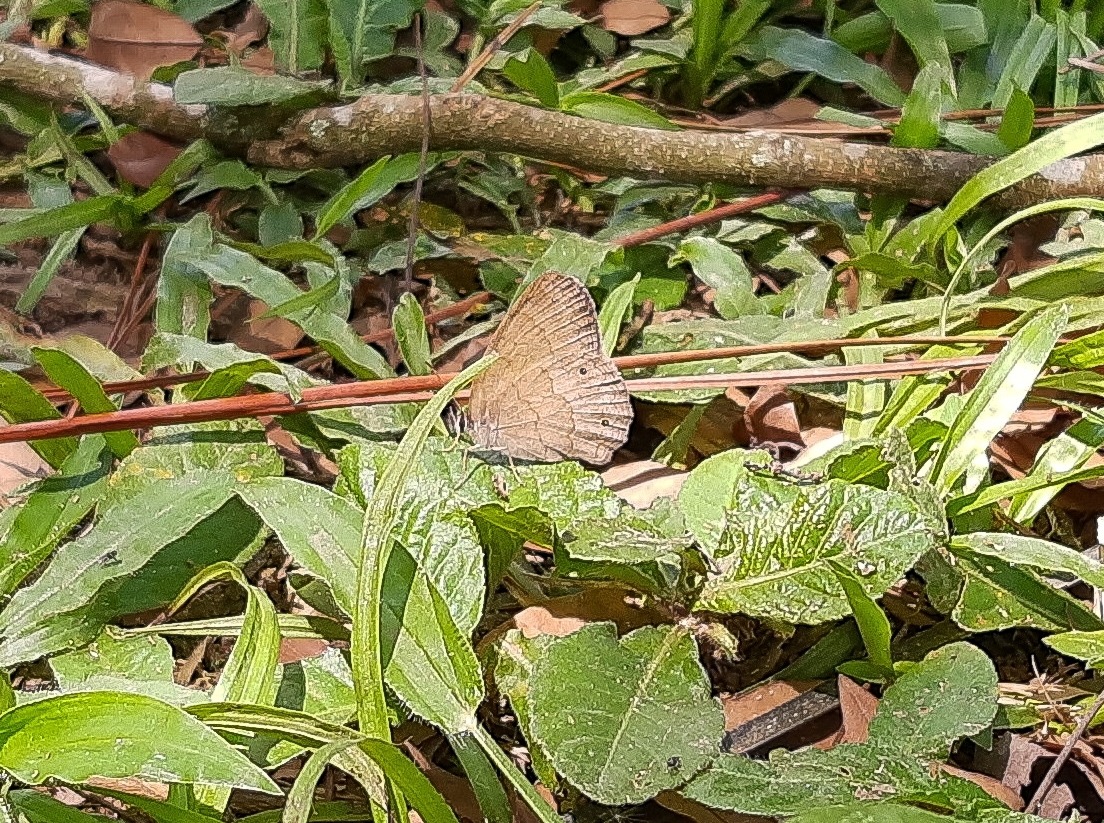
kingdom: Animalia
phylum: Arthropoda
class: Insecta
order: Lepidoptera
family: Nymphalidae
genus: Euptychia
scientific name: Euptychia Cissia eous
